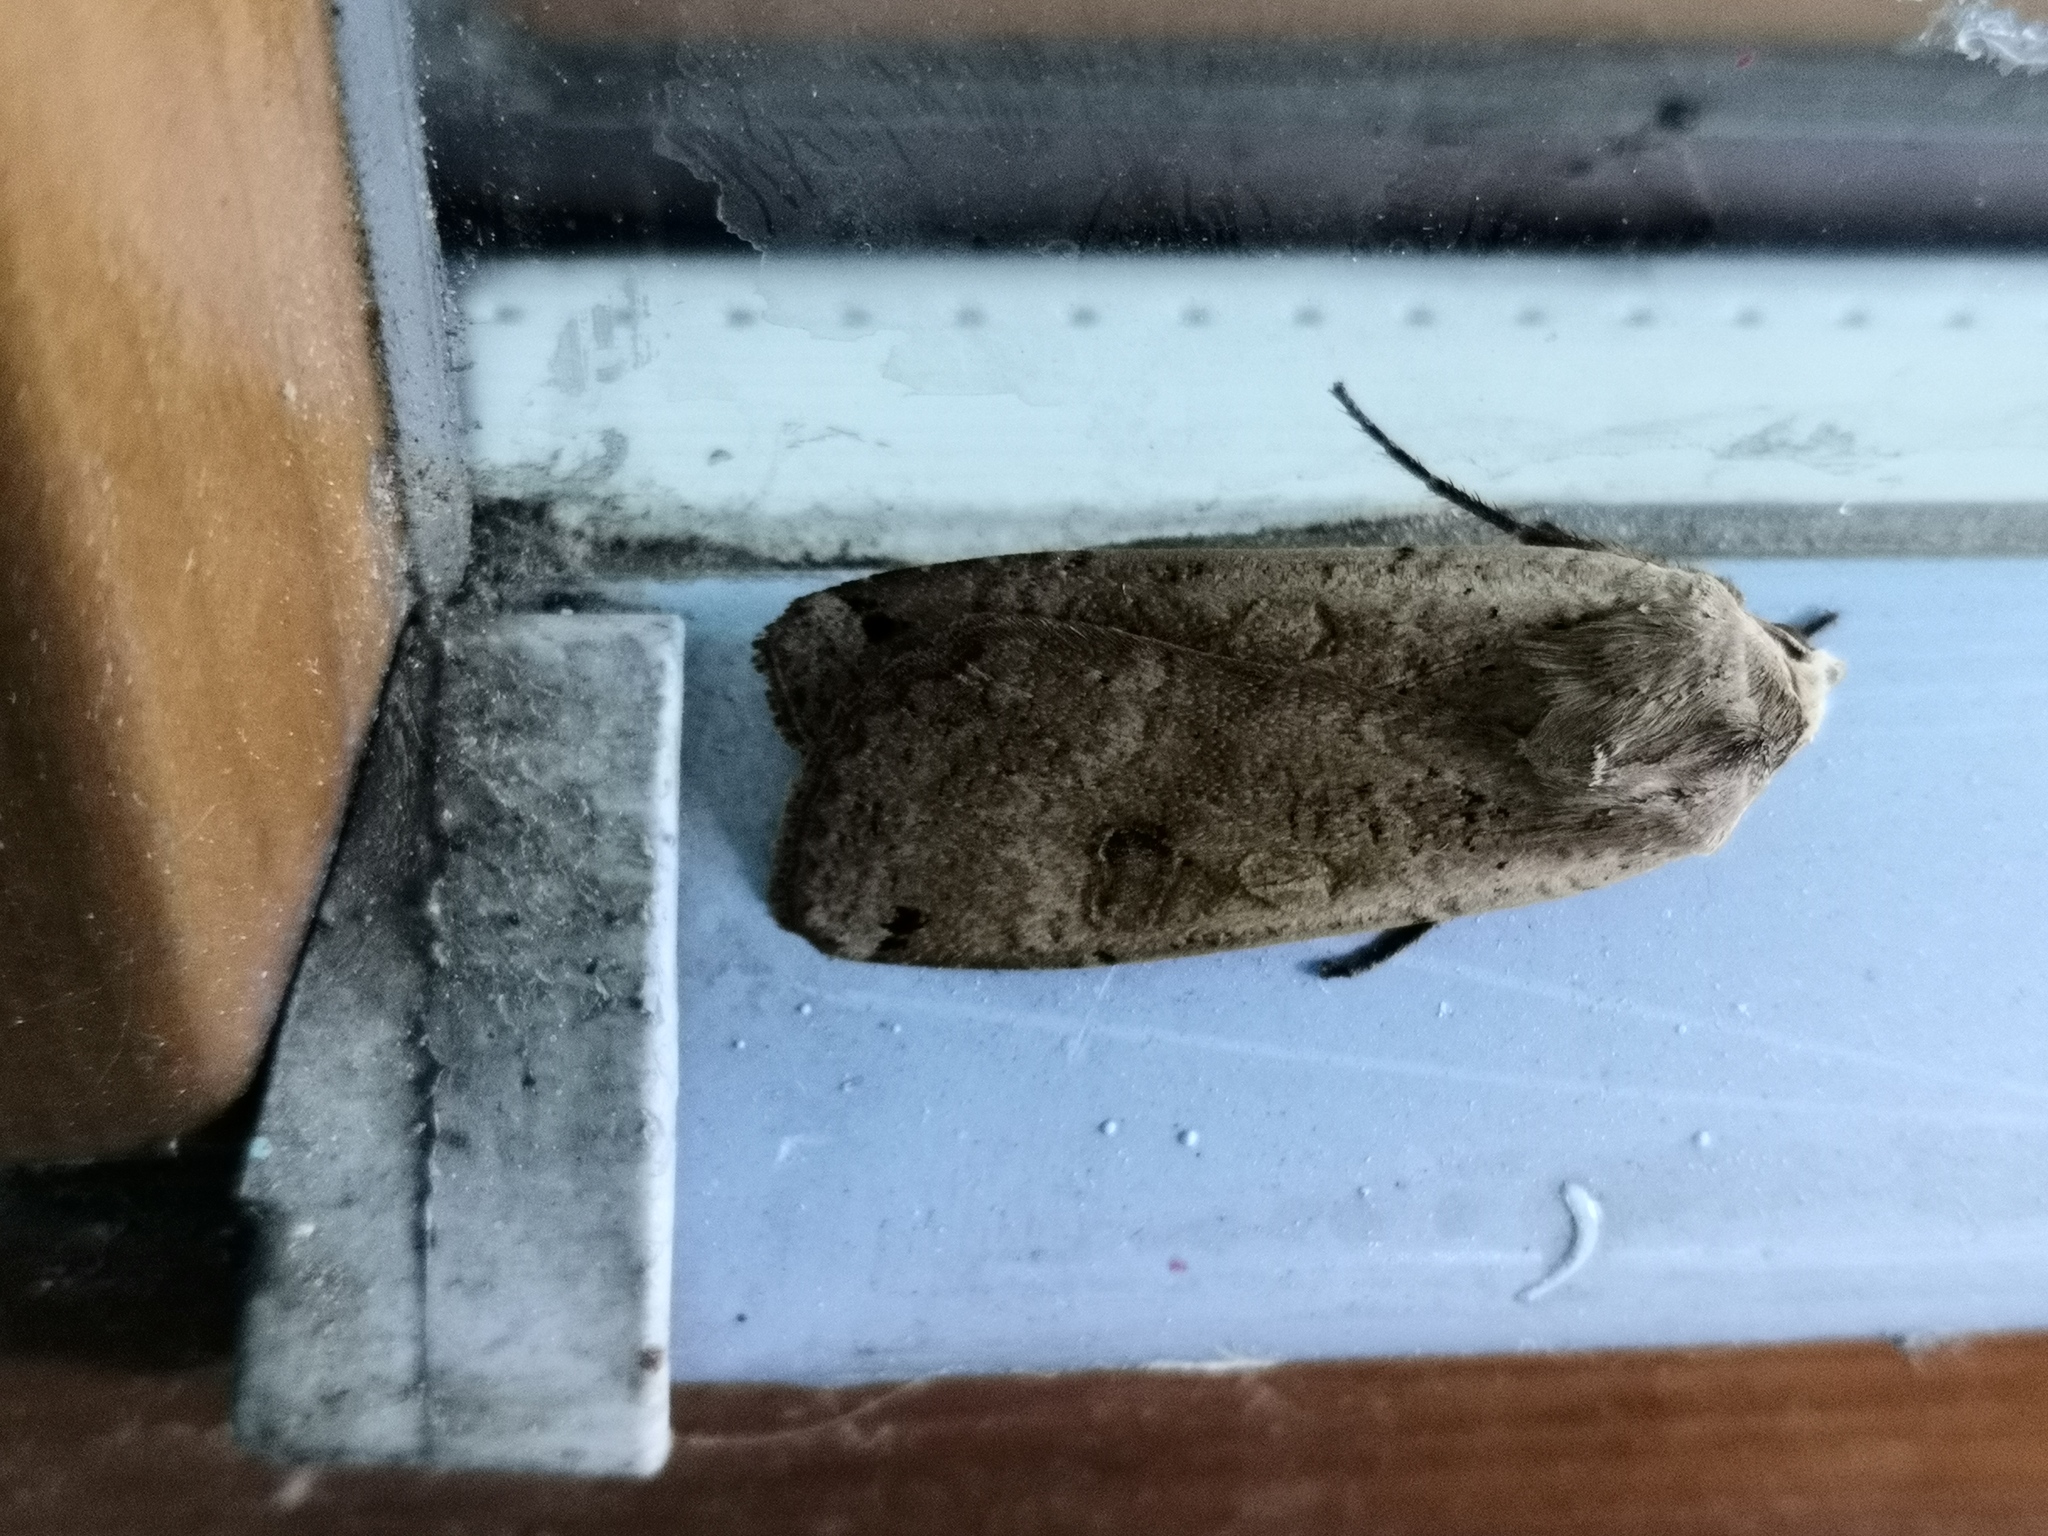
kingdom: Animalia
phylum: Arthropoda
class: Insecta
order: Lepidoptera
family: Noctuidae
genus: Noctua
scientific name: Noctua pronuba
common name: Large yellow underwing
